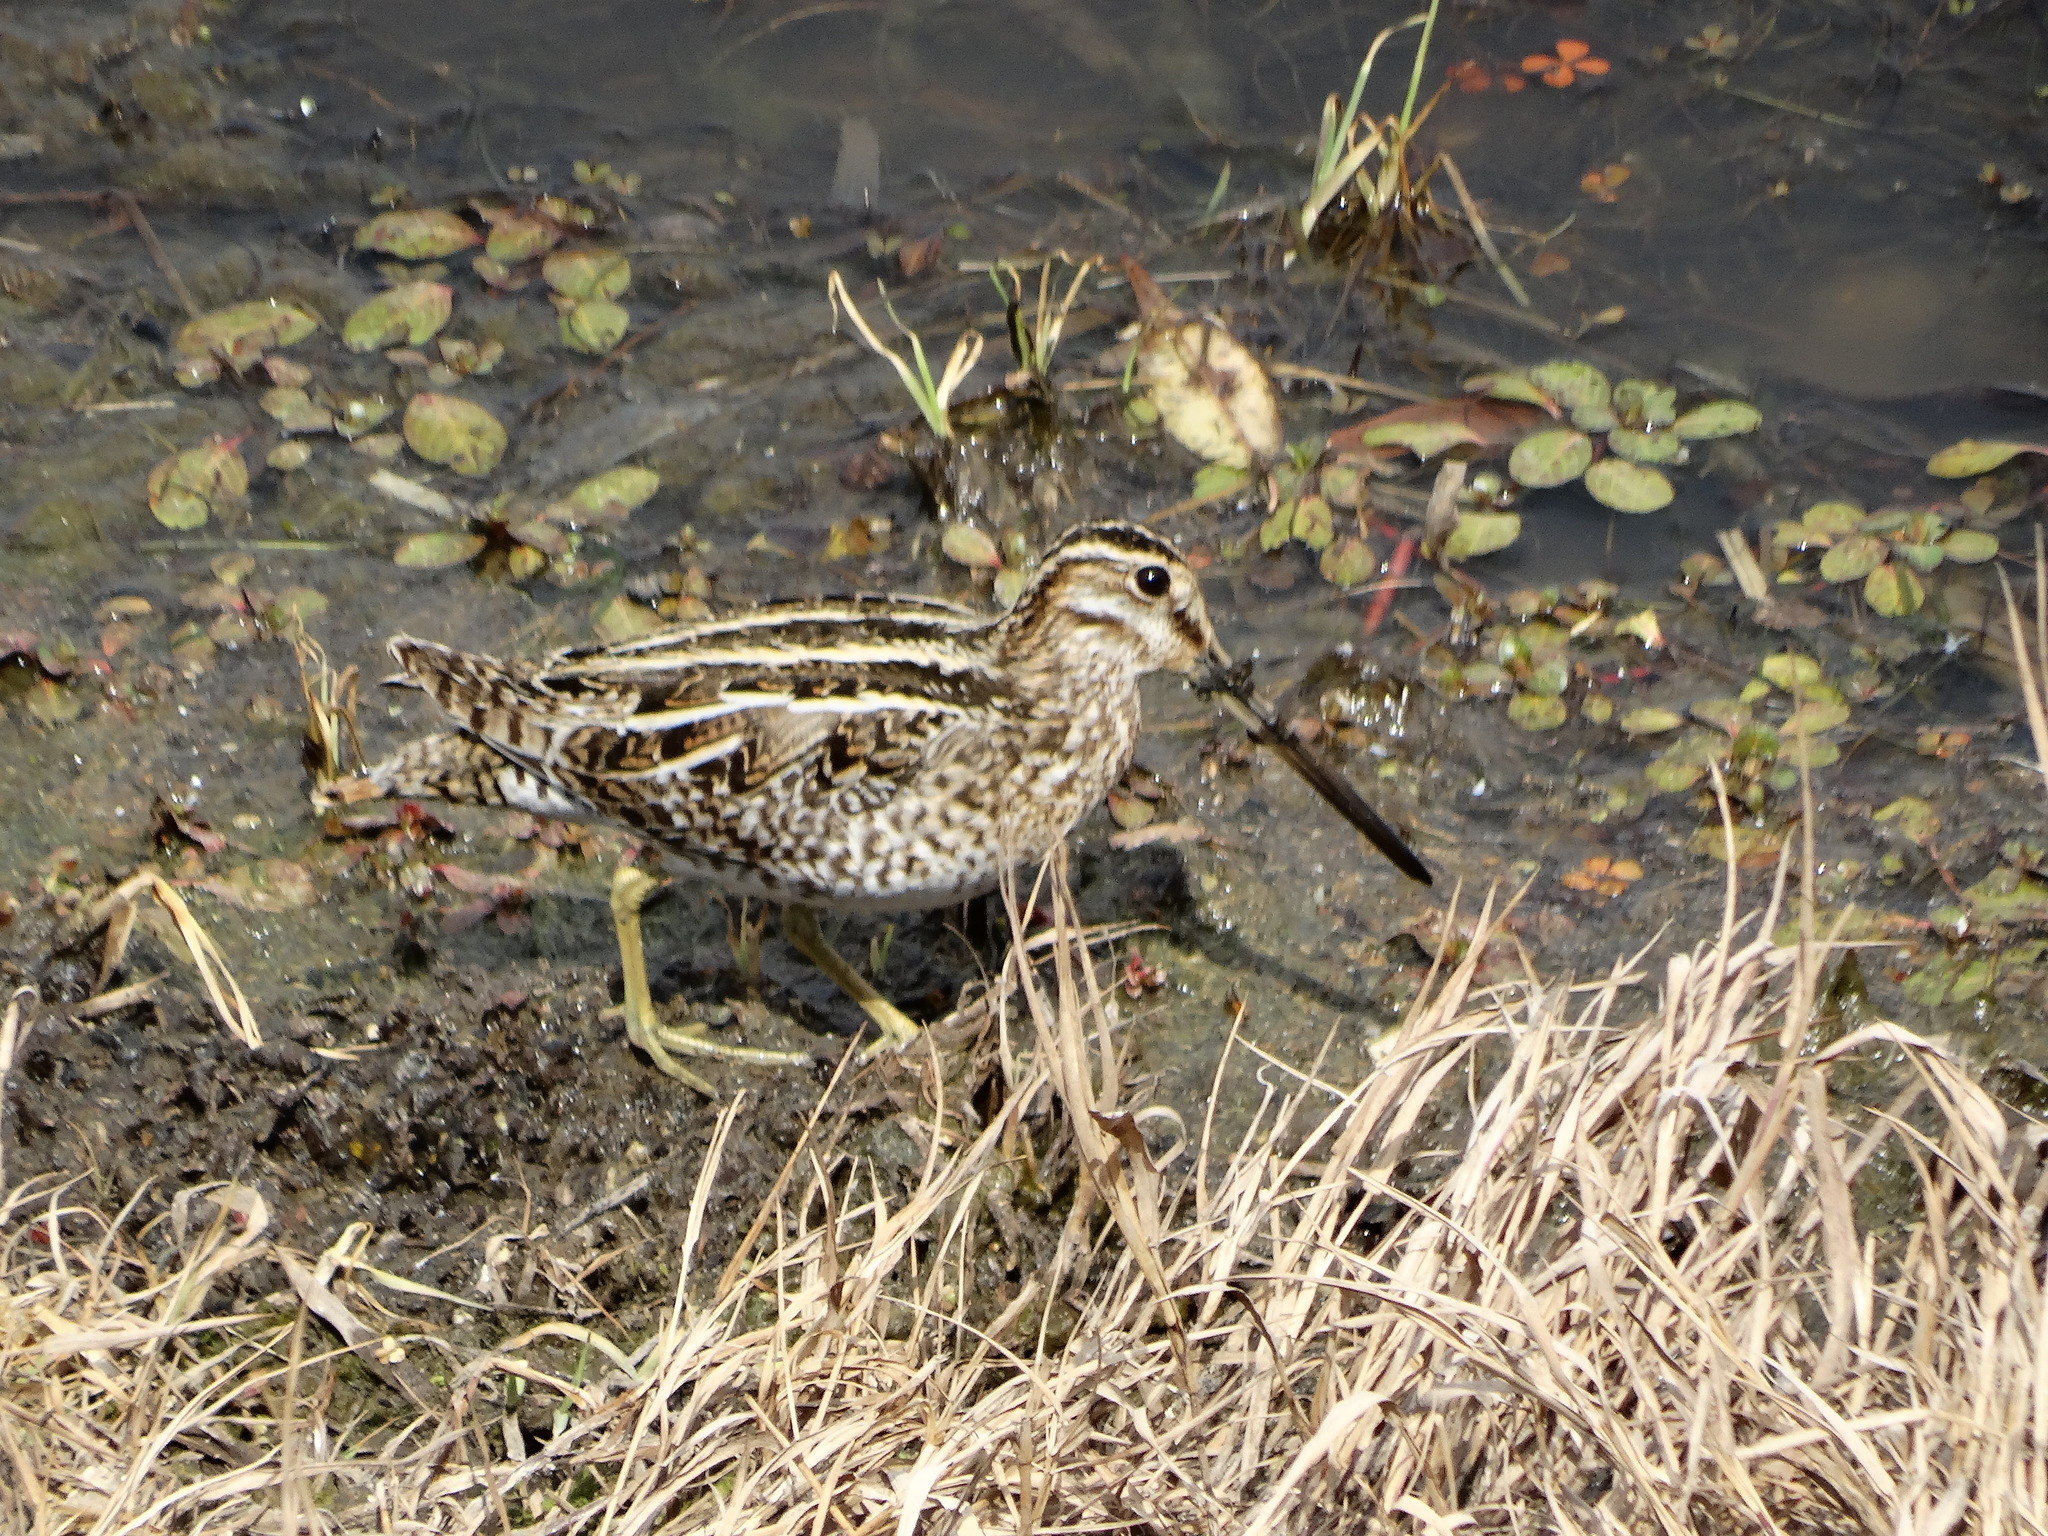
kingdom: Animalia
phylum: Chordata
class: Aves
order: Charadriiformes
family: Scolopacidae
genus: Gallinago
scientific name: Gallinago delicata
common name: Wilson's snipe
